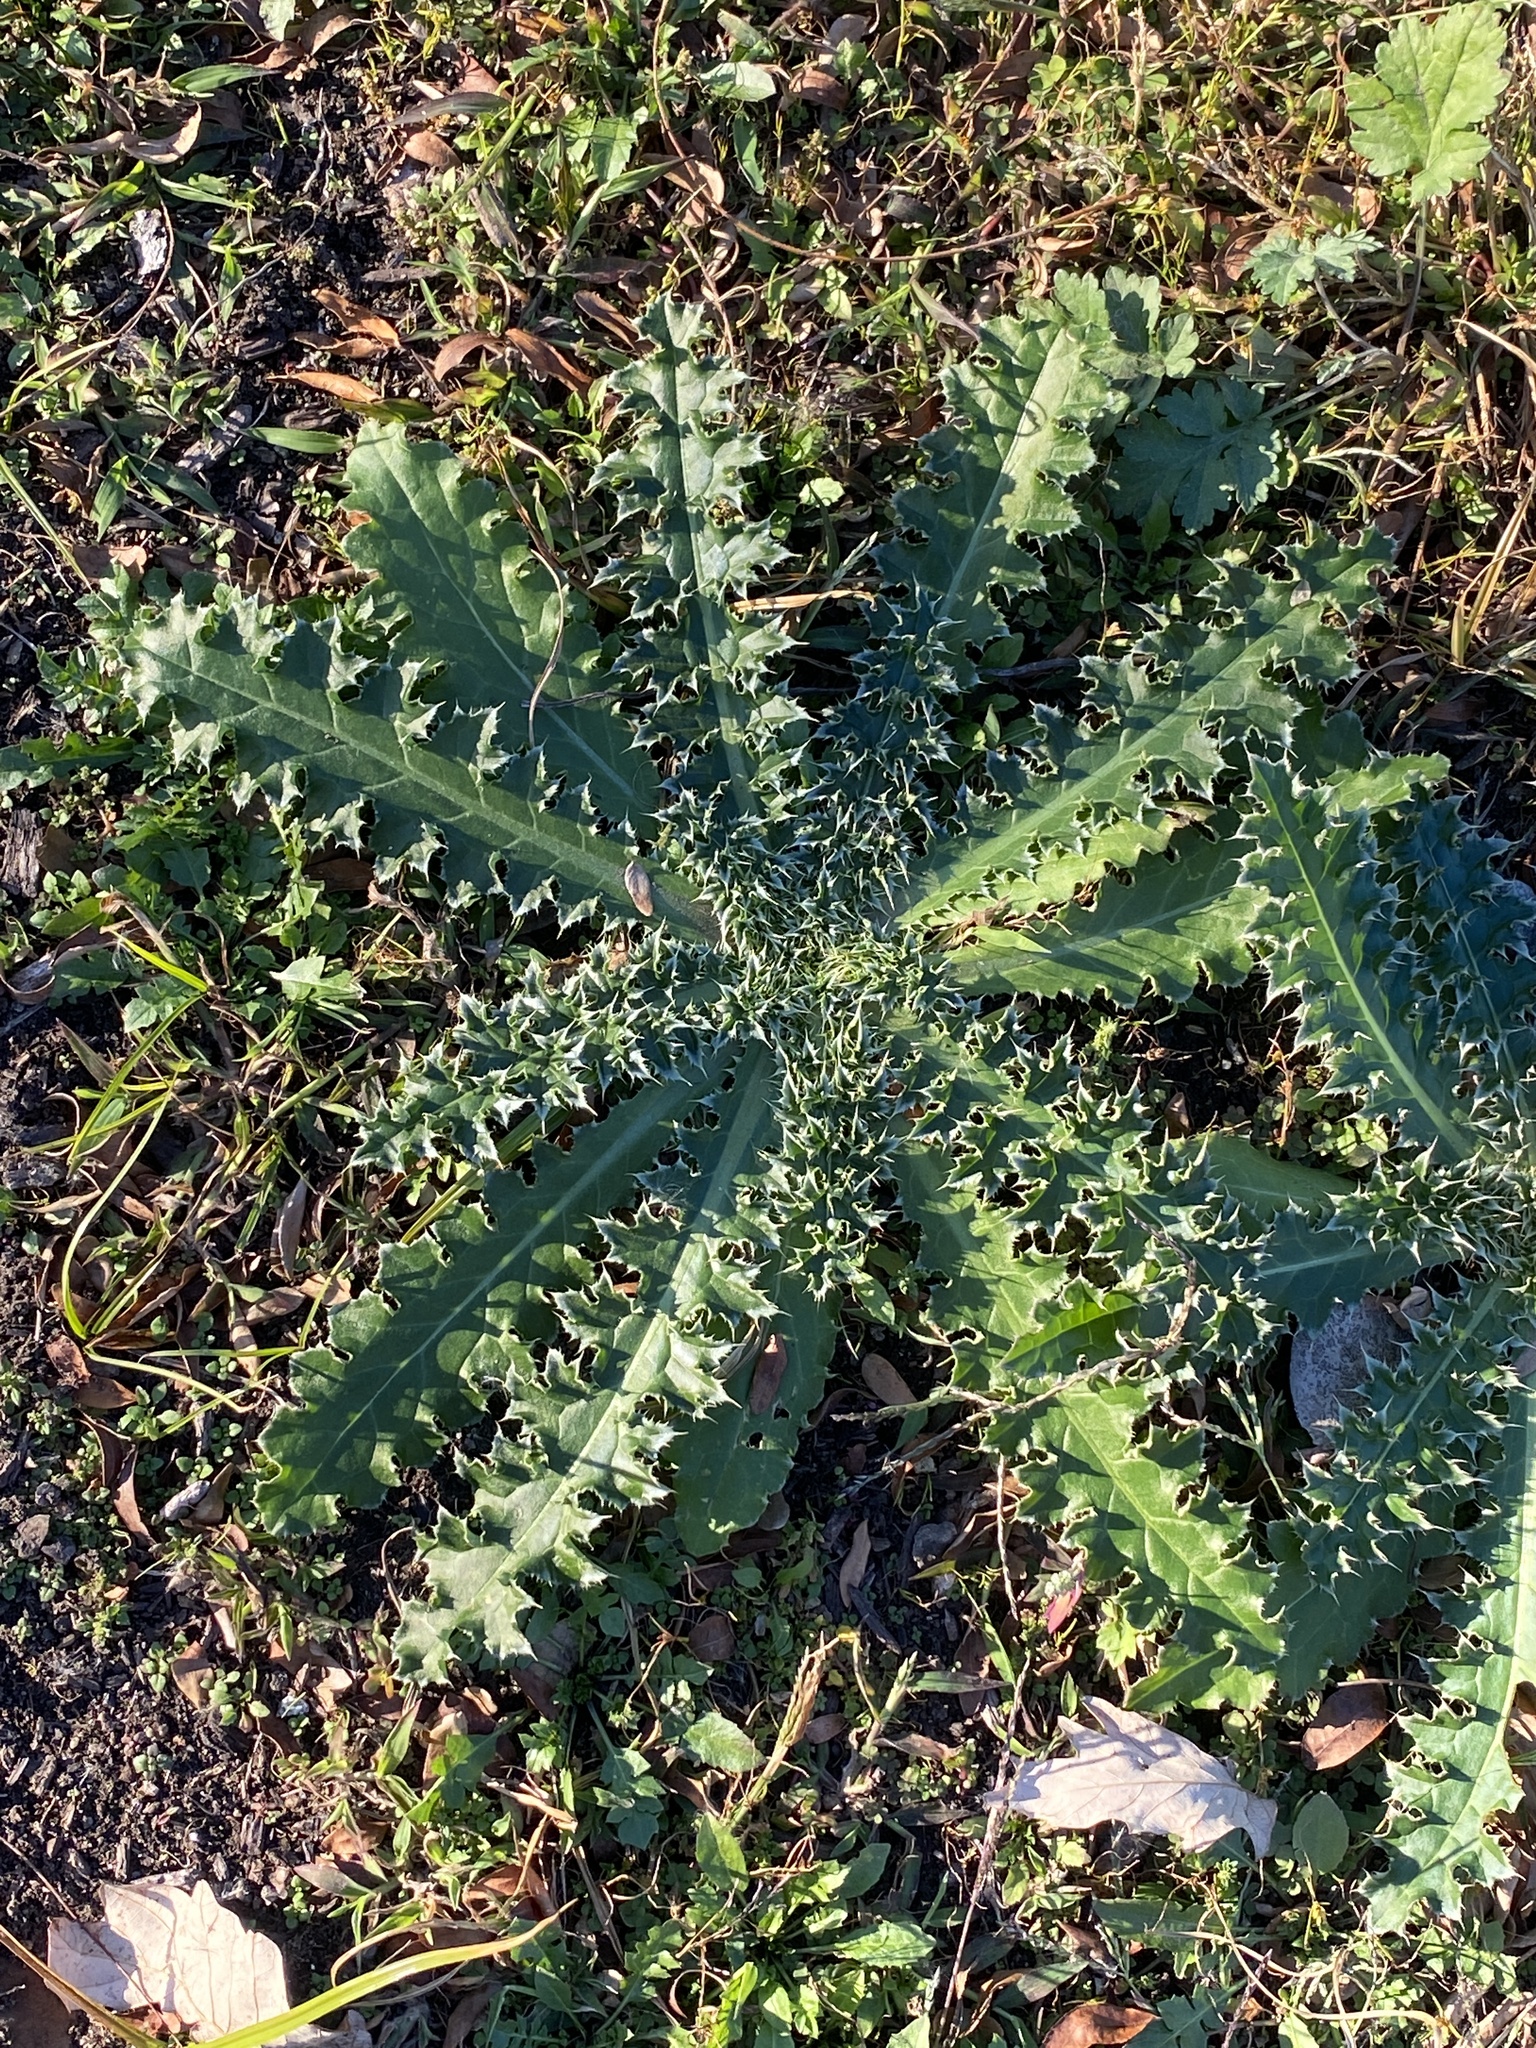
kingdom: Plantae
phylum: Tracheophyta
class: Magnoliopsida
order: Asterales
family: Asteraceae
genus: Carduus
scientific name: Carduus nutans
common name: Musk thistle
